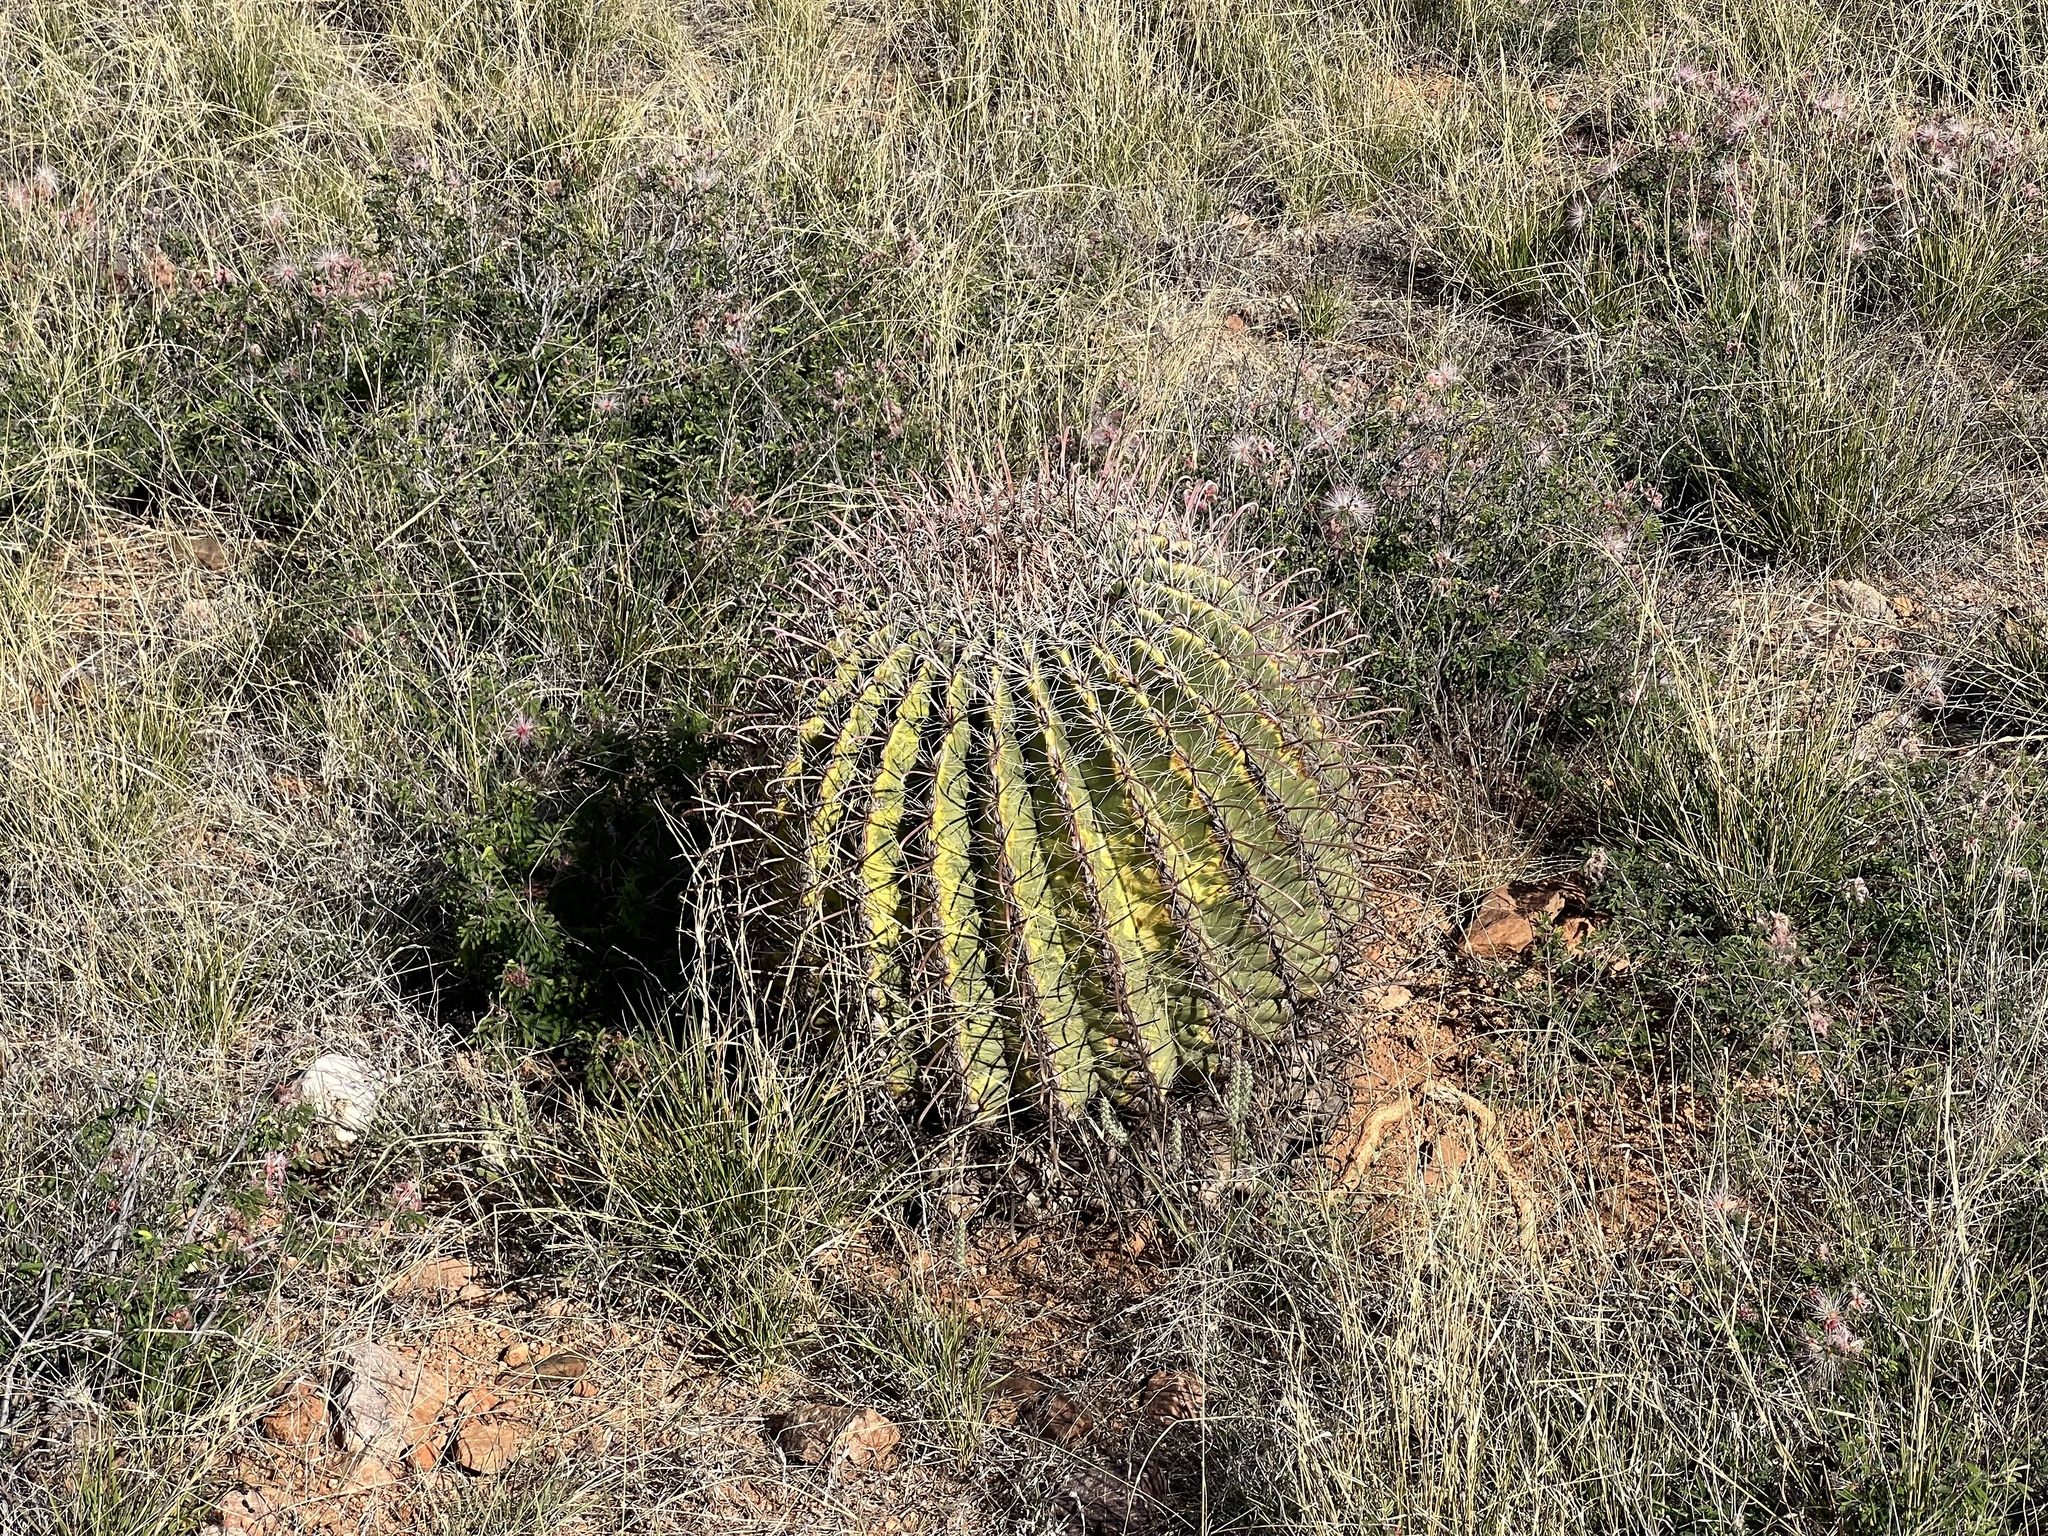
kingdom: Plantae
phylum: Tracheophyta
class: Magnoliopsida
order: Caryophyllales
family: Cactaceae
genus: Ferocactus
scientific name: Ferocactus wislizeni
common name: Candy barrel cactus
